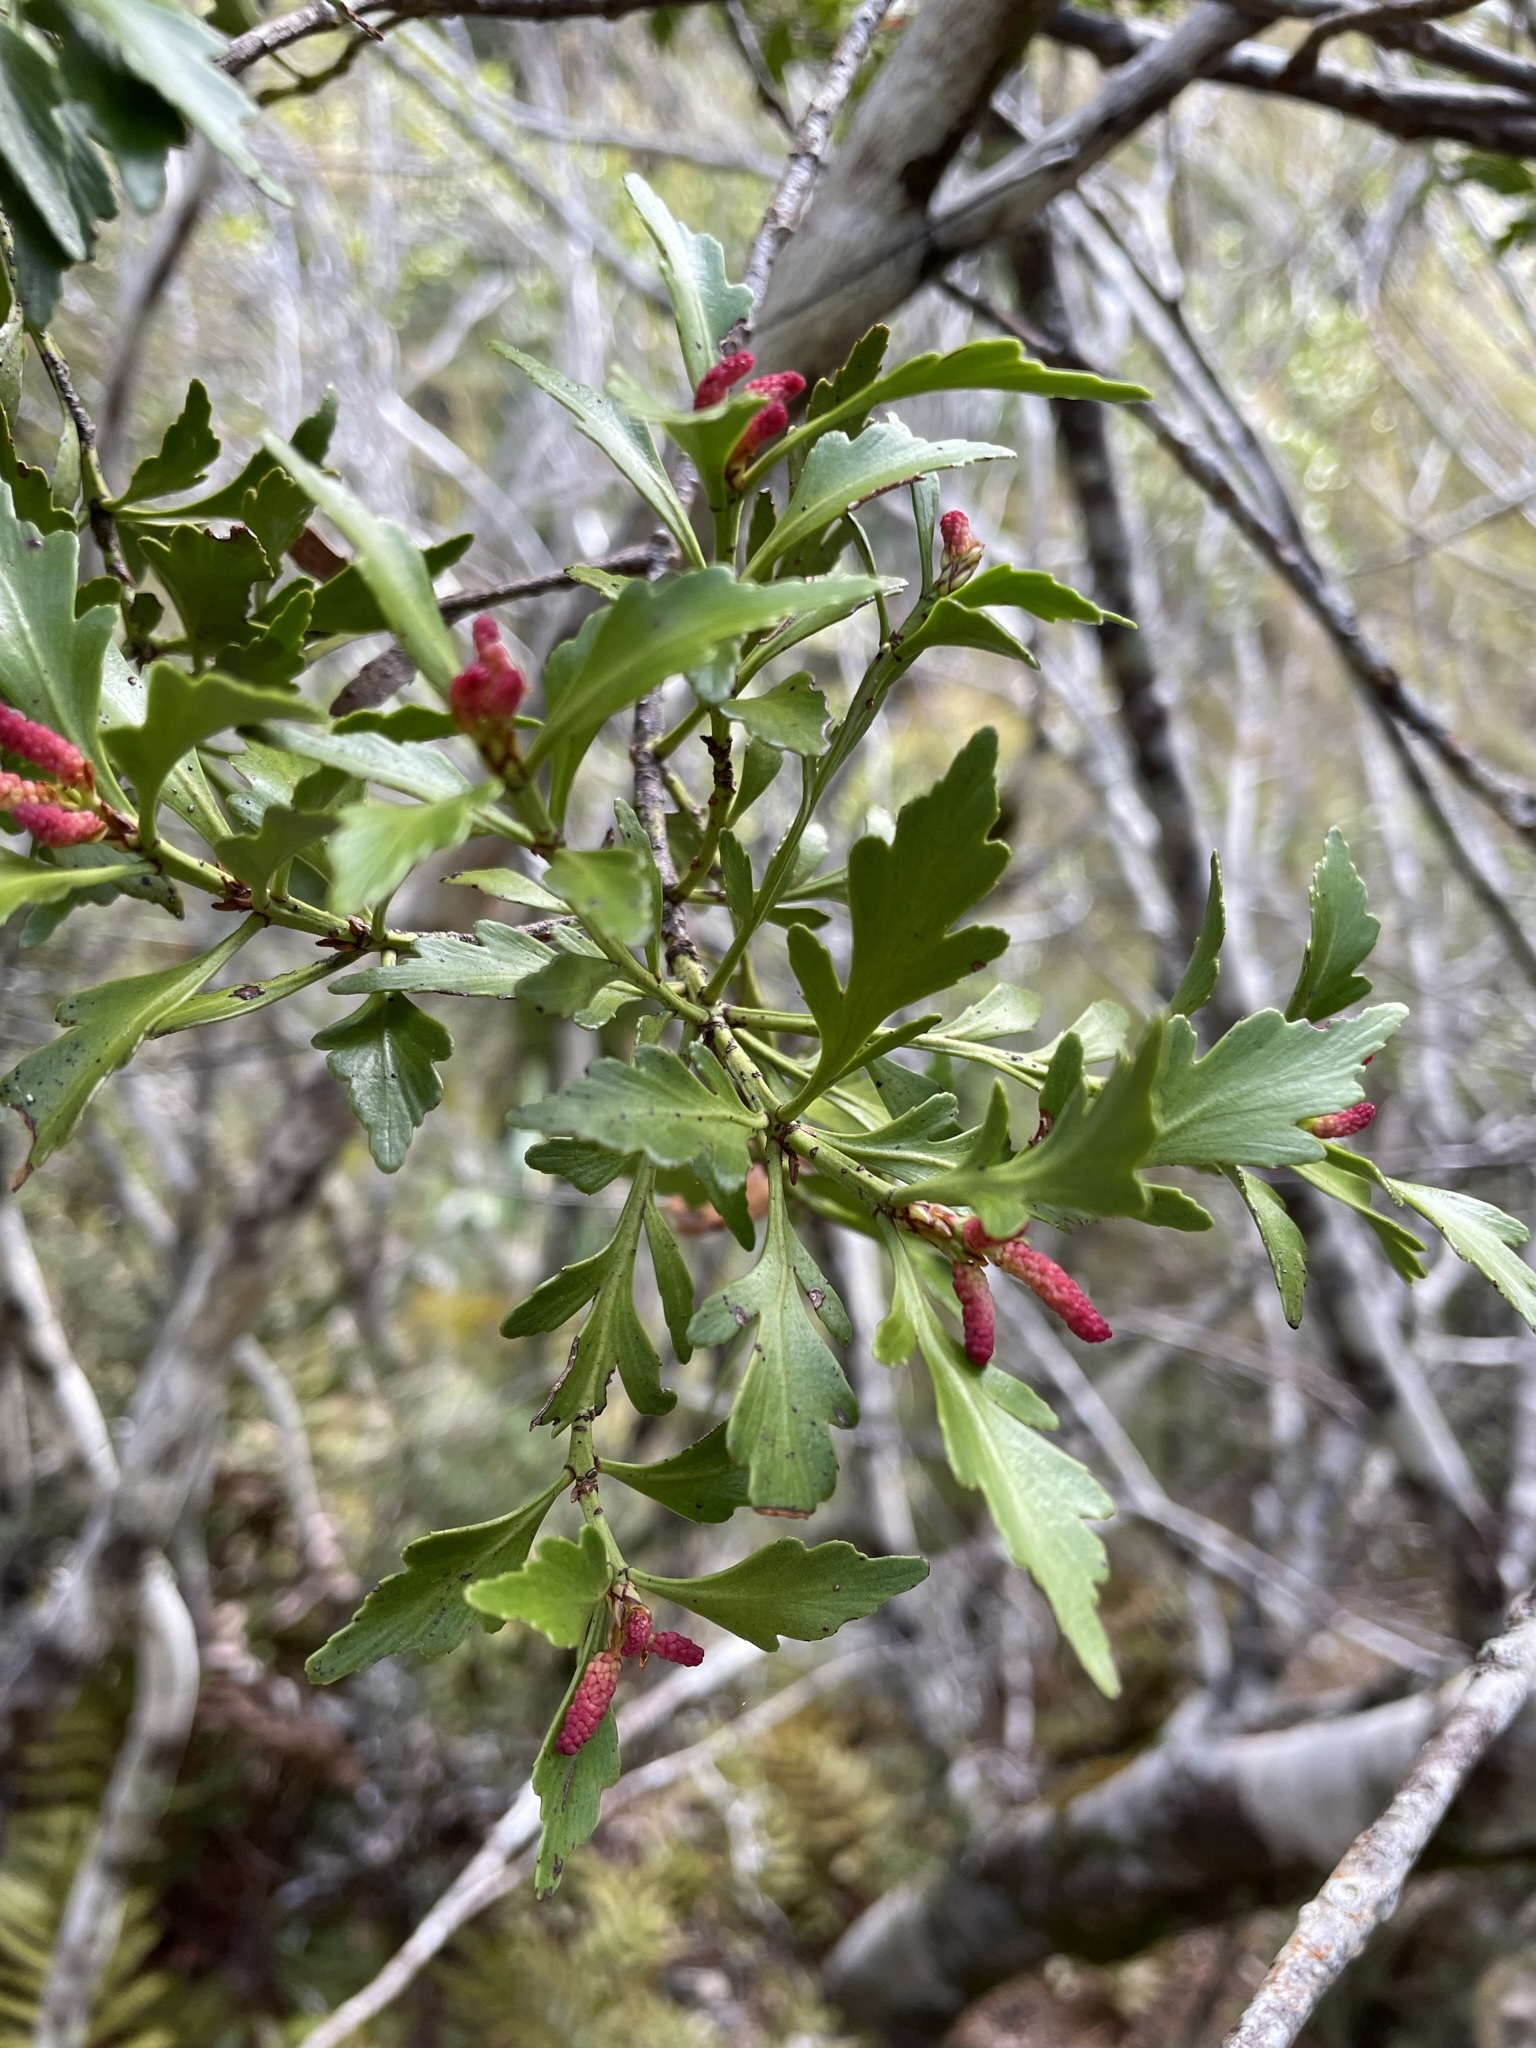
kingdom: Plantae
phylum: Tracheophyta
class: Pinopsida
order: Pinales
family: Phyllocladaceae
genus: Phyllocladus
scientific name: Phyllocladus trichomanoides
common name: Celery pine
